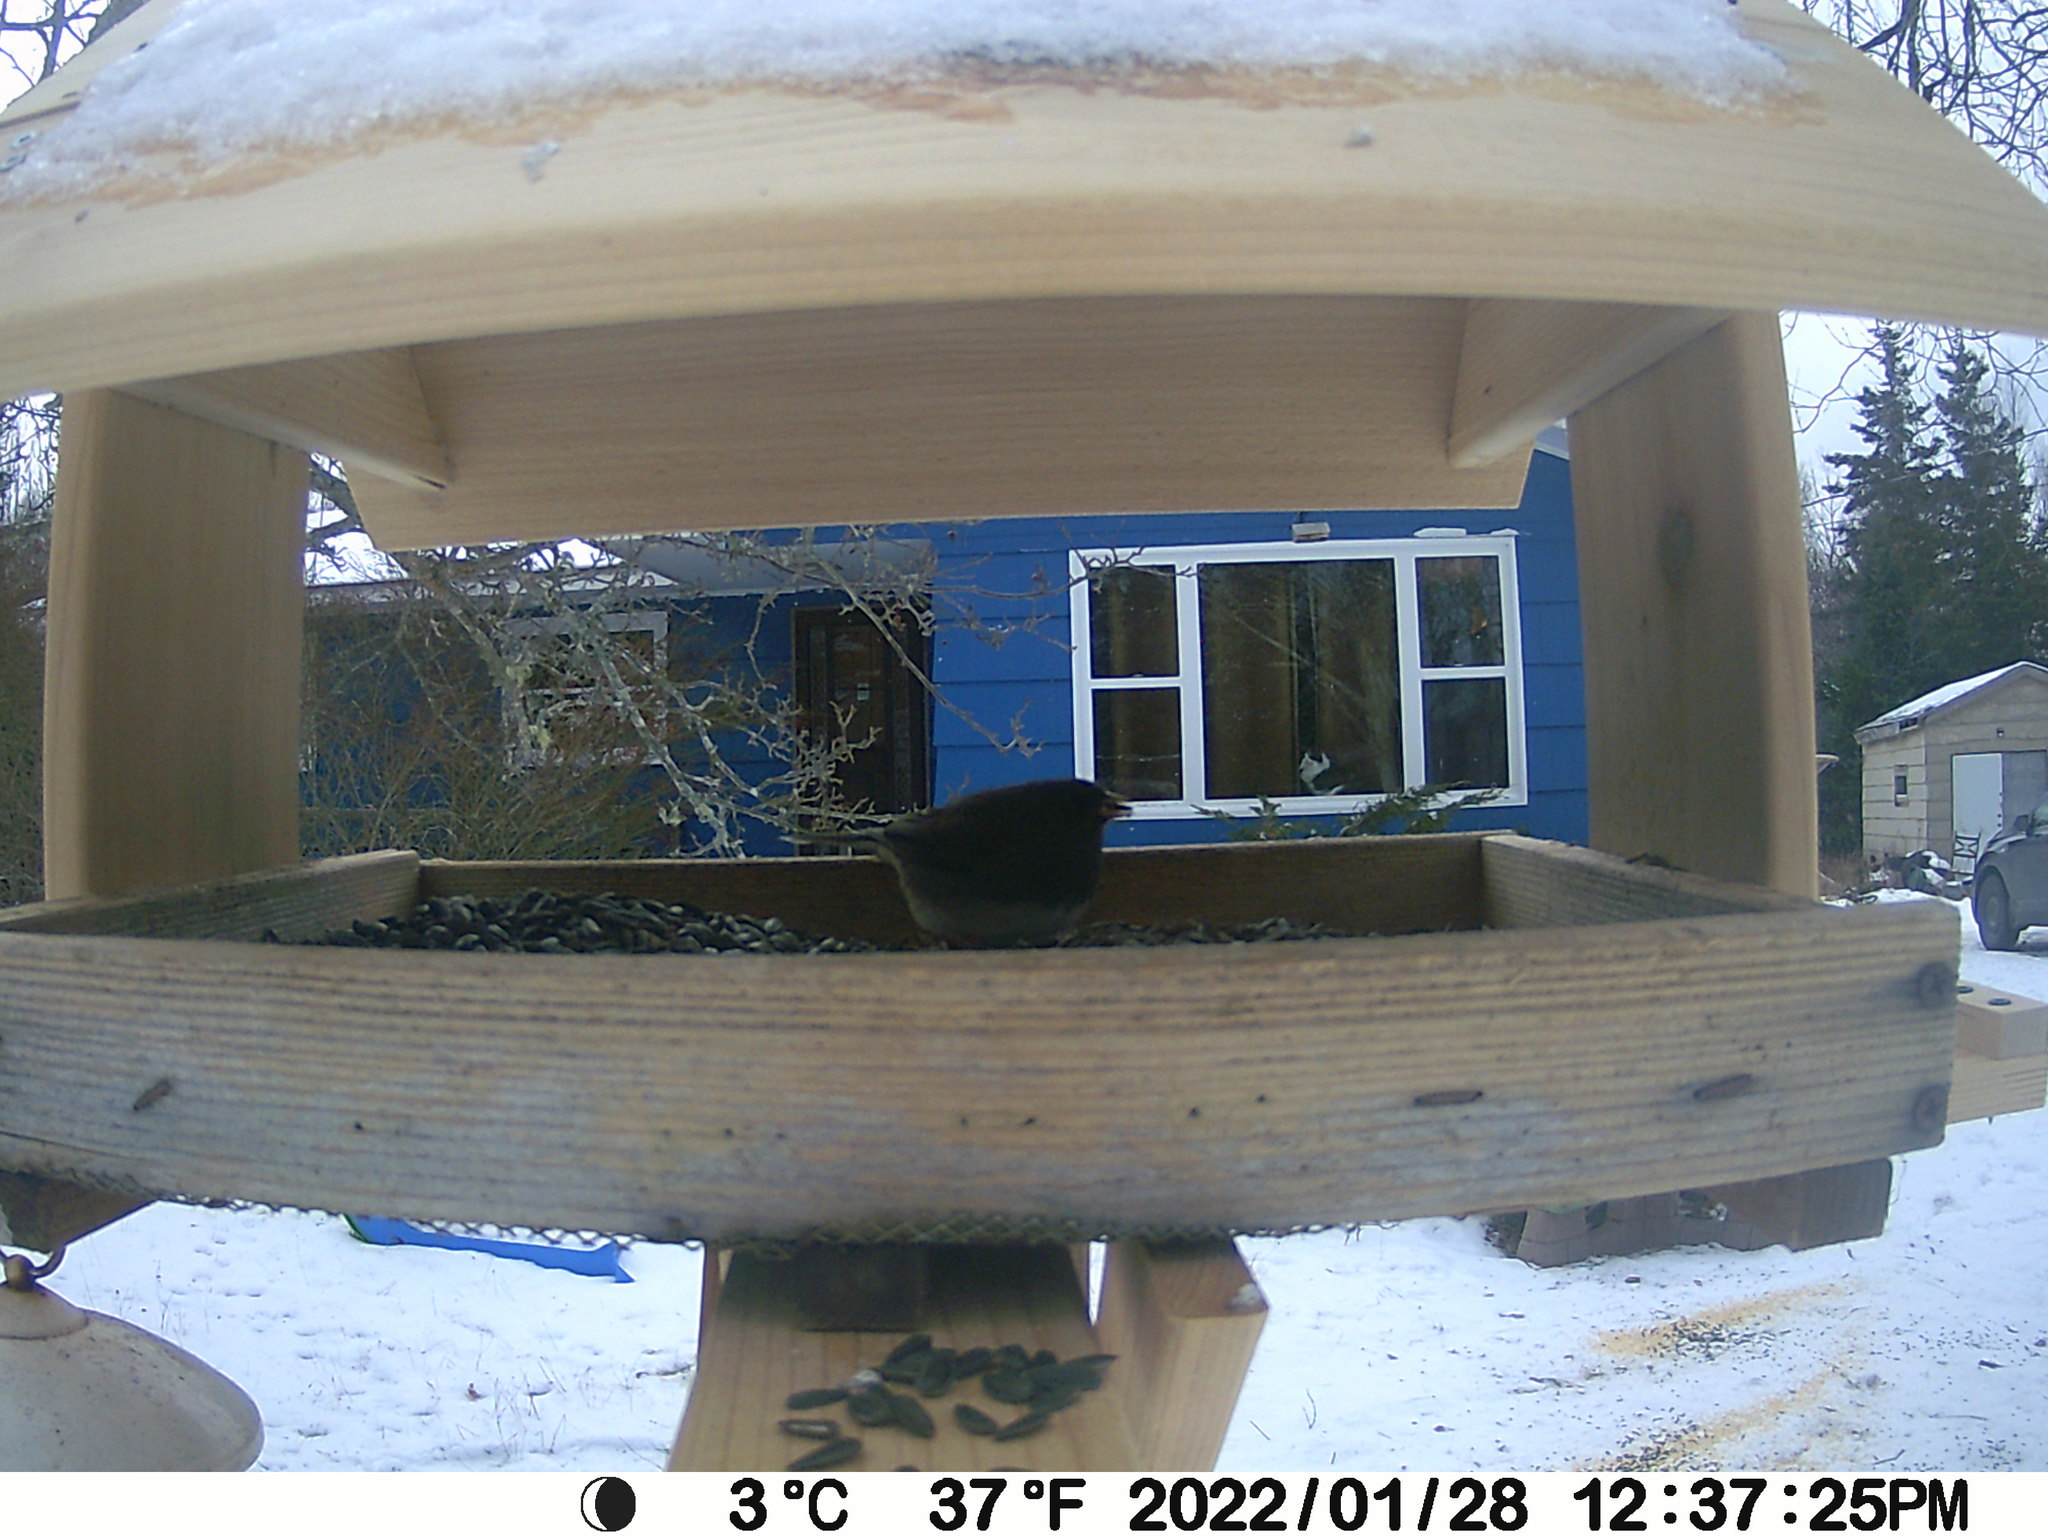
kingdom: Animalia
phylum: Chordata
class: Aves
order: Passeriformes
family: Passerellidae
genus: Junco
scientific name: Junco hyemalis
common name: Dark-eyed junco
